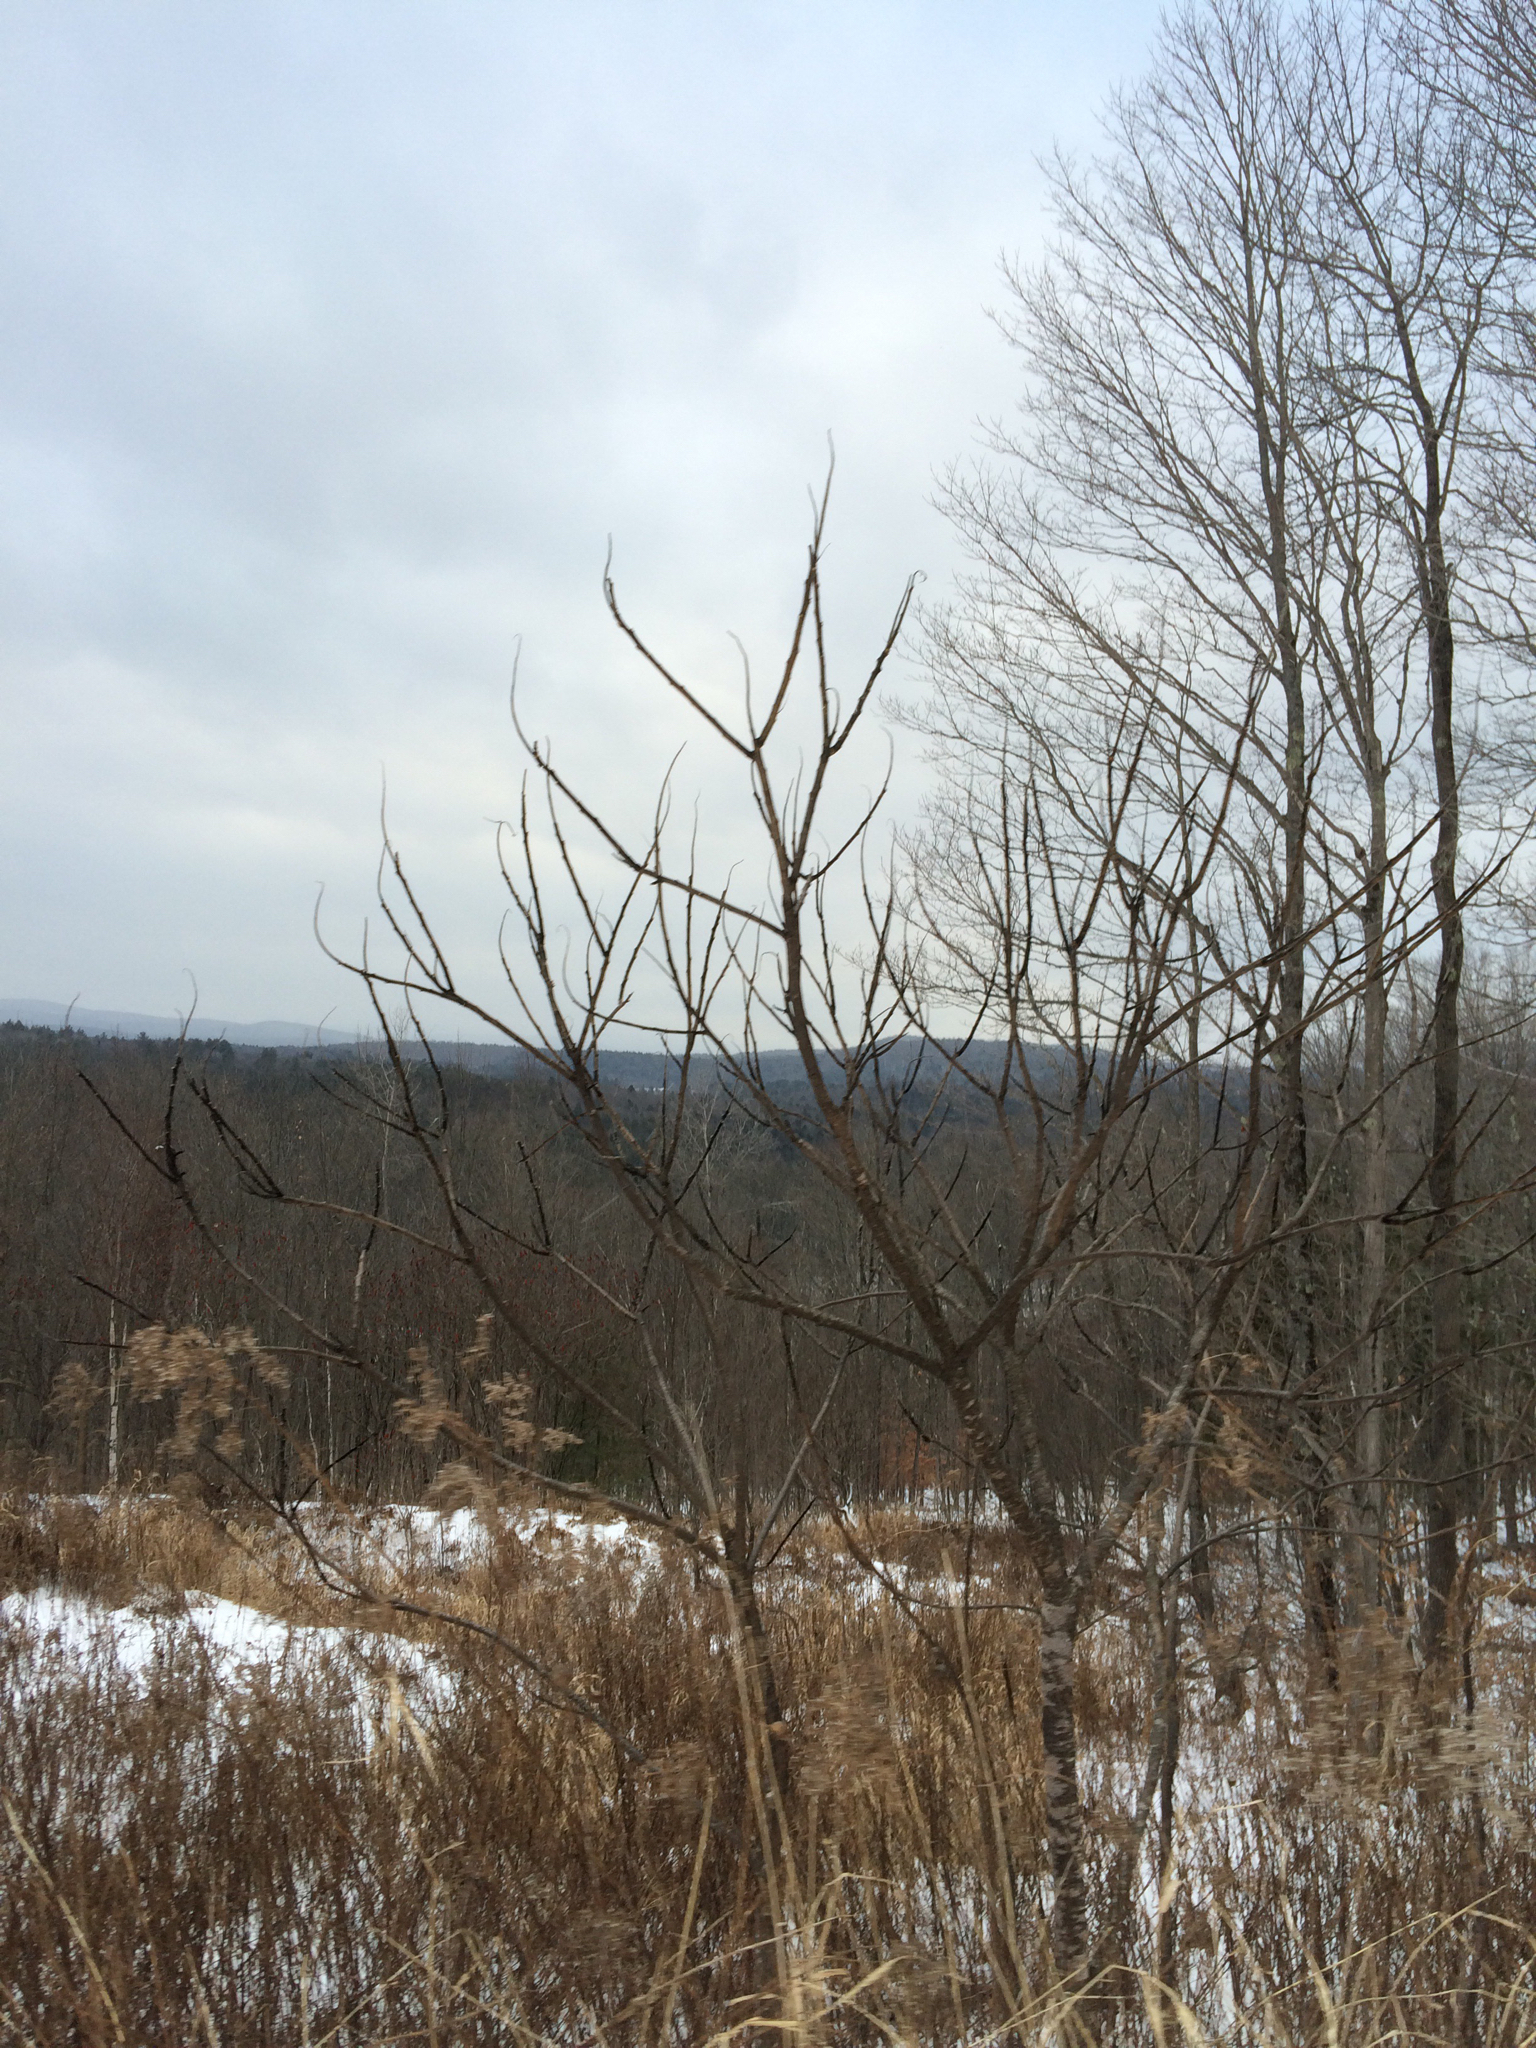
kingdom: Plantae
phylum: Tracheophyta
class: Magnoliopsida
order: Sapindales
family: Anacardiaceae
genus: Rhus
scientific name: Rhus typhina
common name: Staghorn sumac
